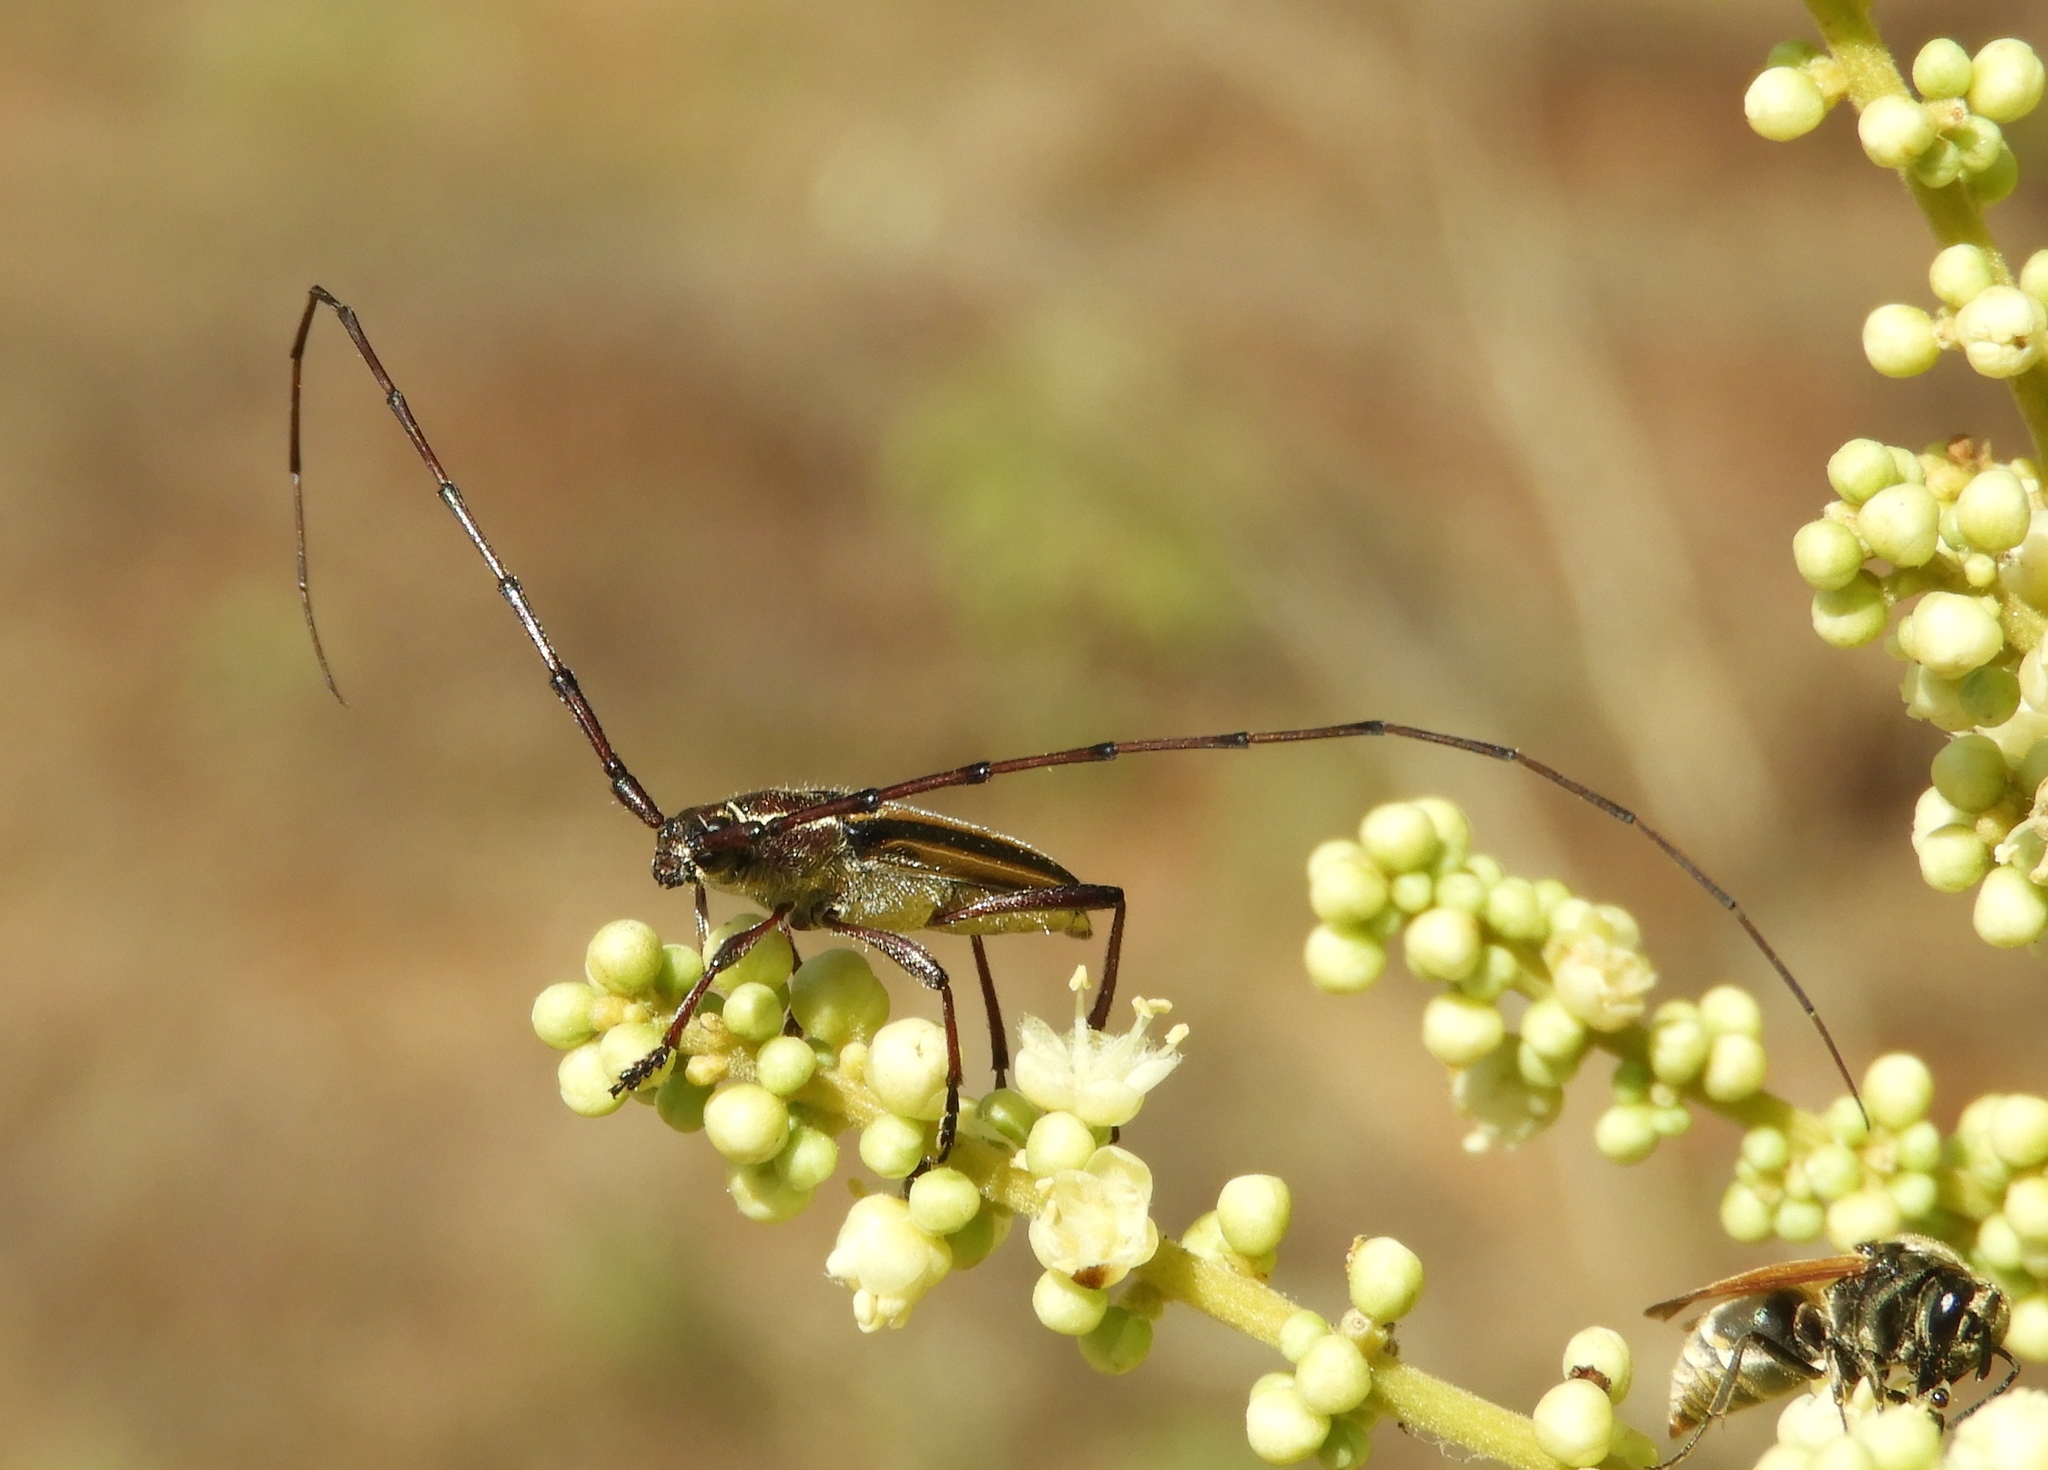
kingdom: Animalia
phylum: Arthropoda
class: Insecta
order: Coleoptera
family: Cerambycidae
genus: Sphaenothecus
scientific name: Sphaenothecus maccartyi
